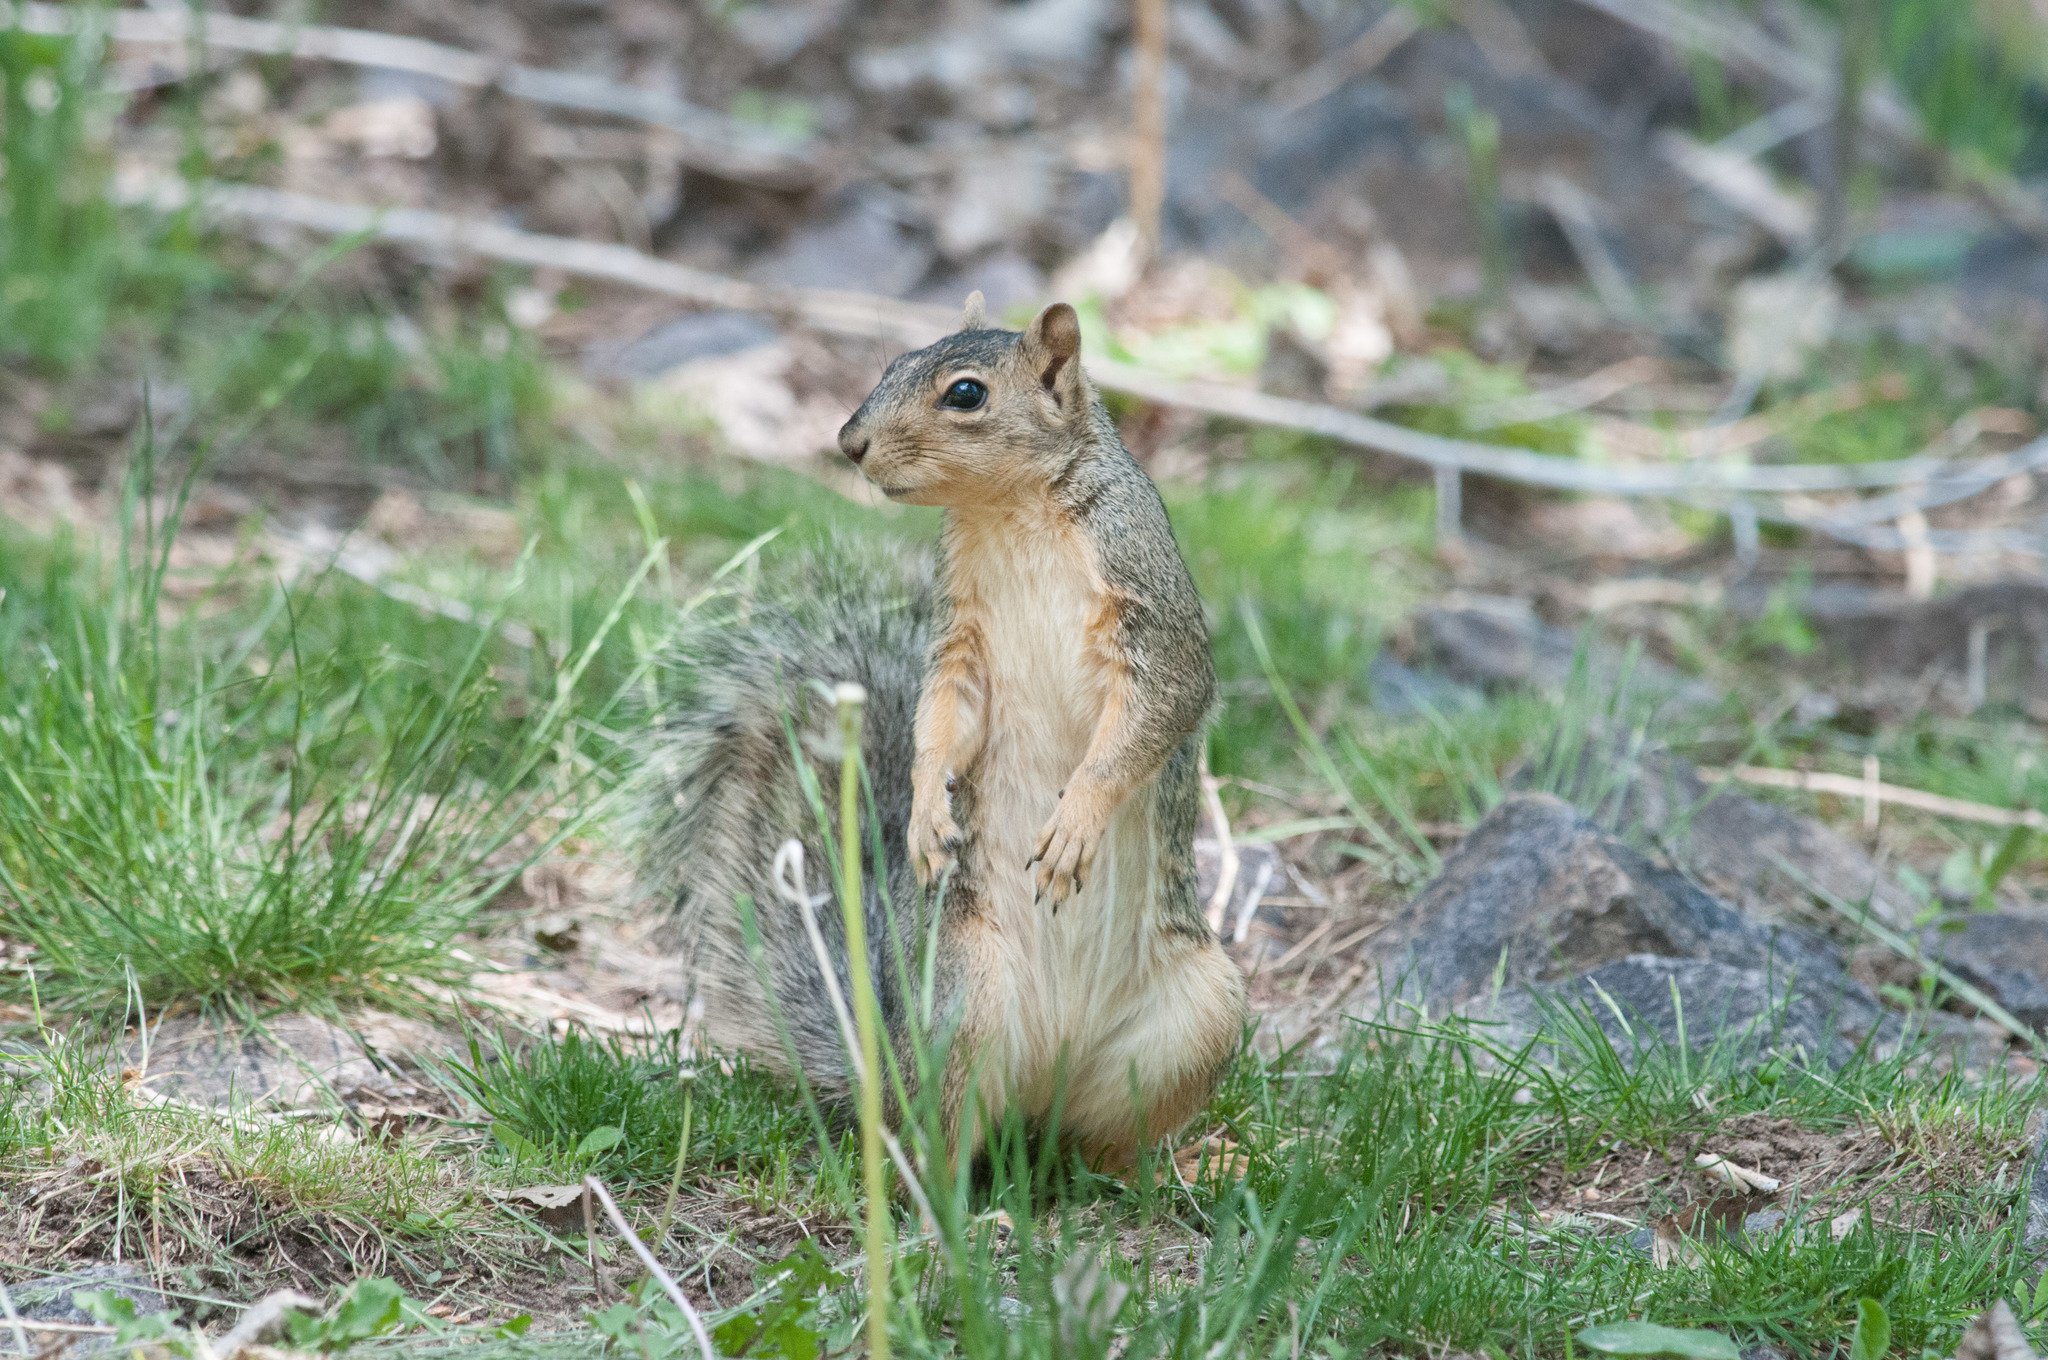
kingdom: Animalia
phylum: Chordata
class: Mammalia
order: Rodentia
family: Sciuridae
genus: Sciurus
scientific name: Sciurus niger
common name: Fox squirrel
